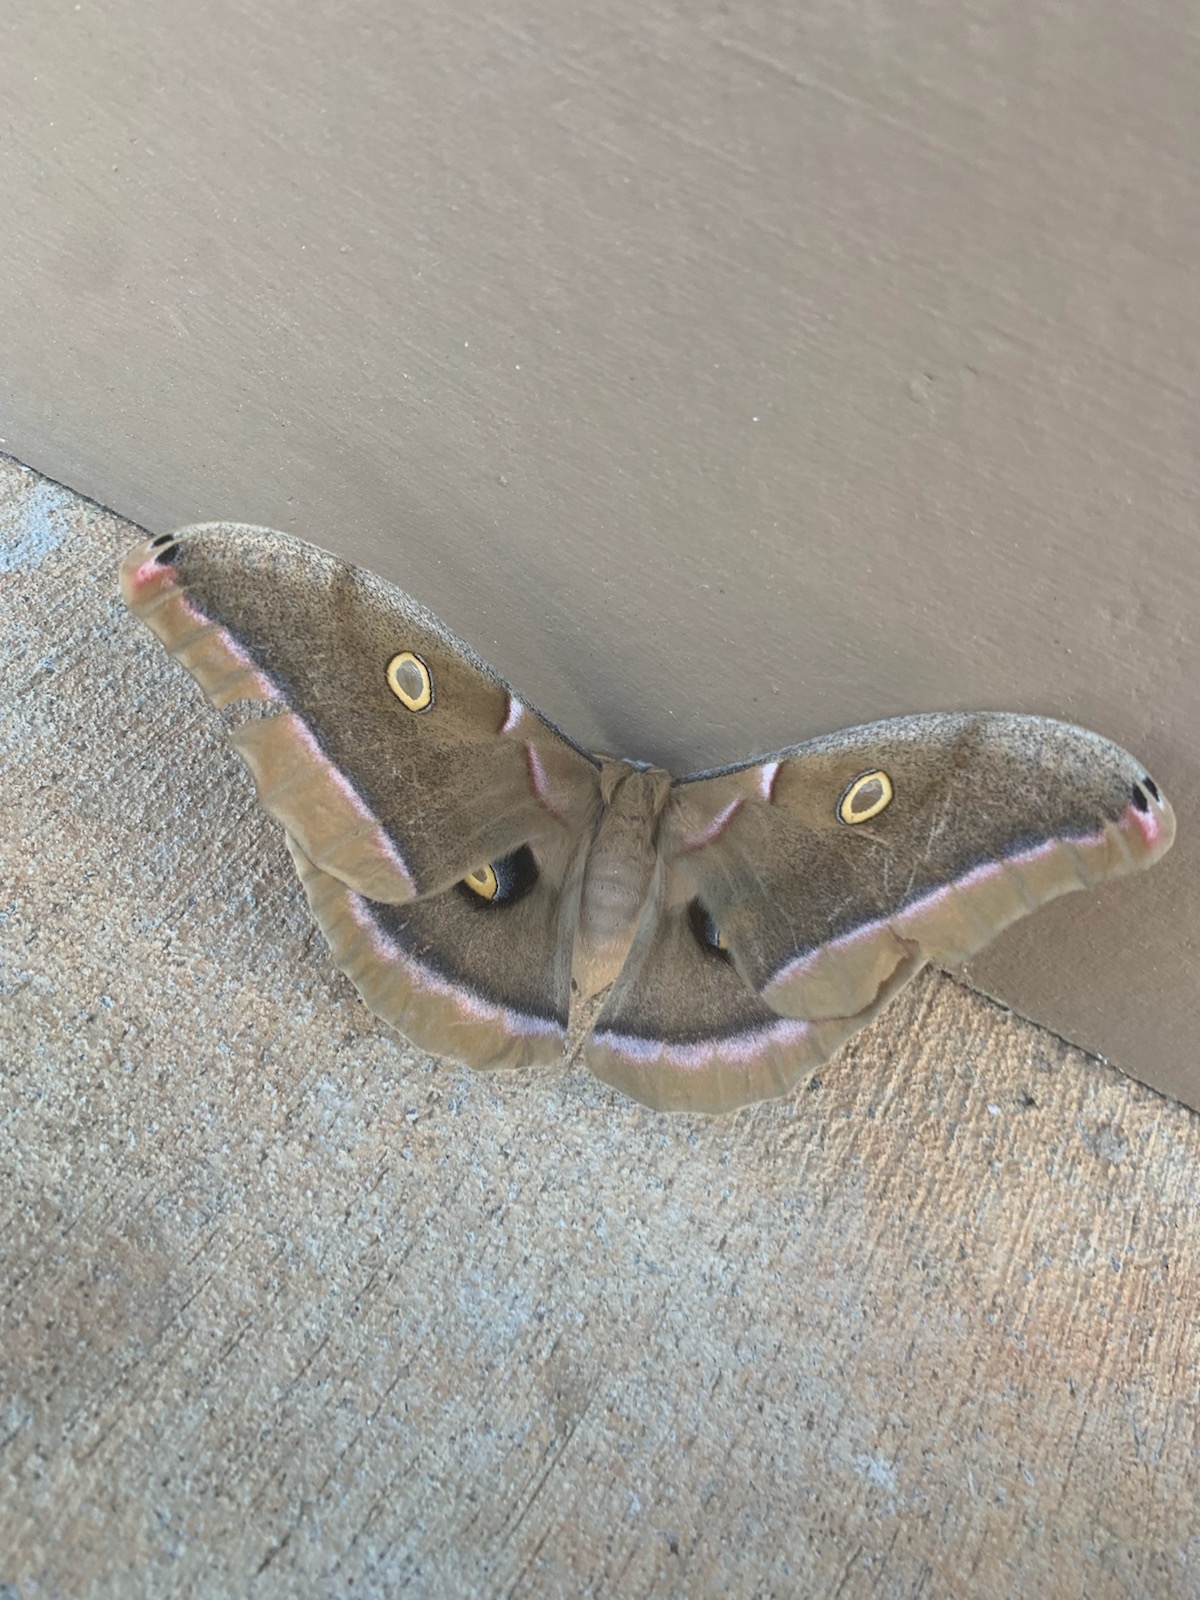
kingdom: Animalia
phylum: Arthropoda
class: Insecta
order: Lepidoptera
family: Saturniidae
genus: Antheraea
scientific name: Antheraea polyphemus
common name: Polyphemus moth
